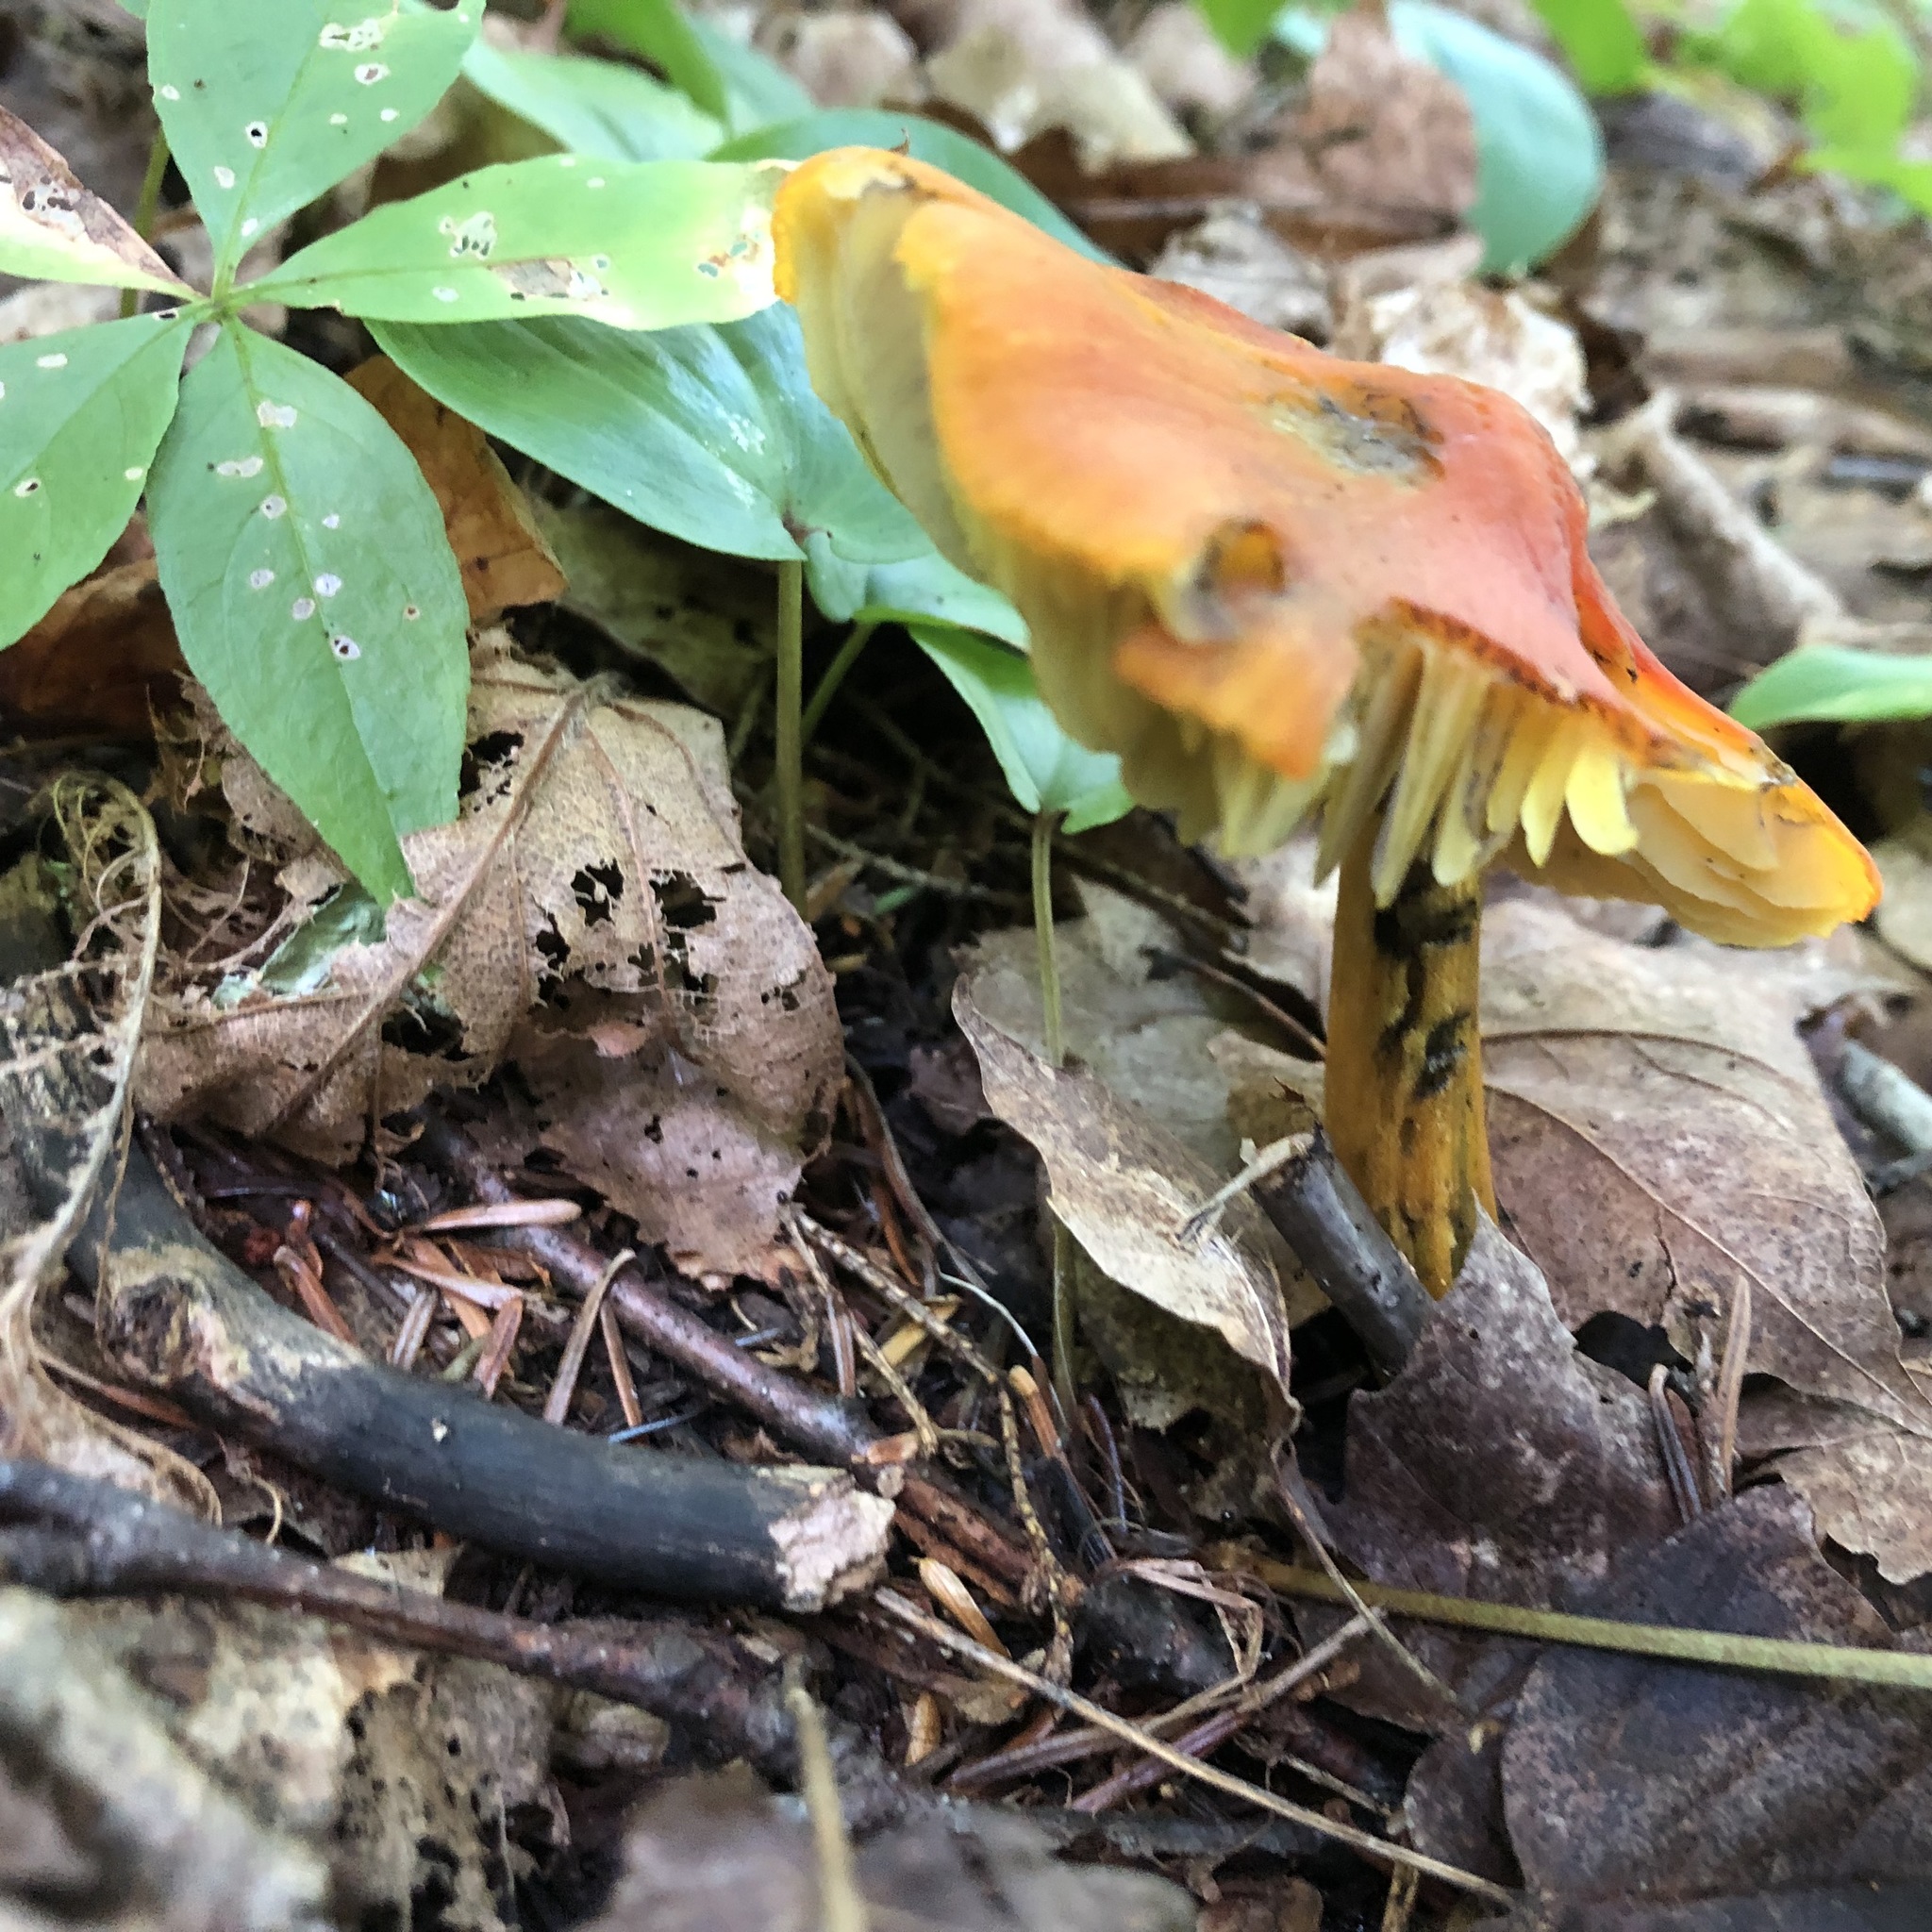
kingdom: Fungi
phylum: Basidiomycota
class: Agaricomycetes
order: Agaricales
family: Hygrophoraceae
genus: Hygrocybe
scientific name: Hygrocybe conica
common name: Blackening wax-cap
